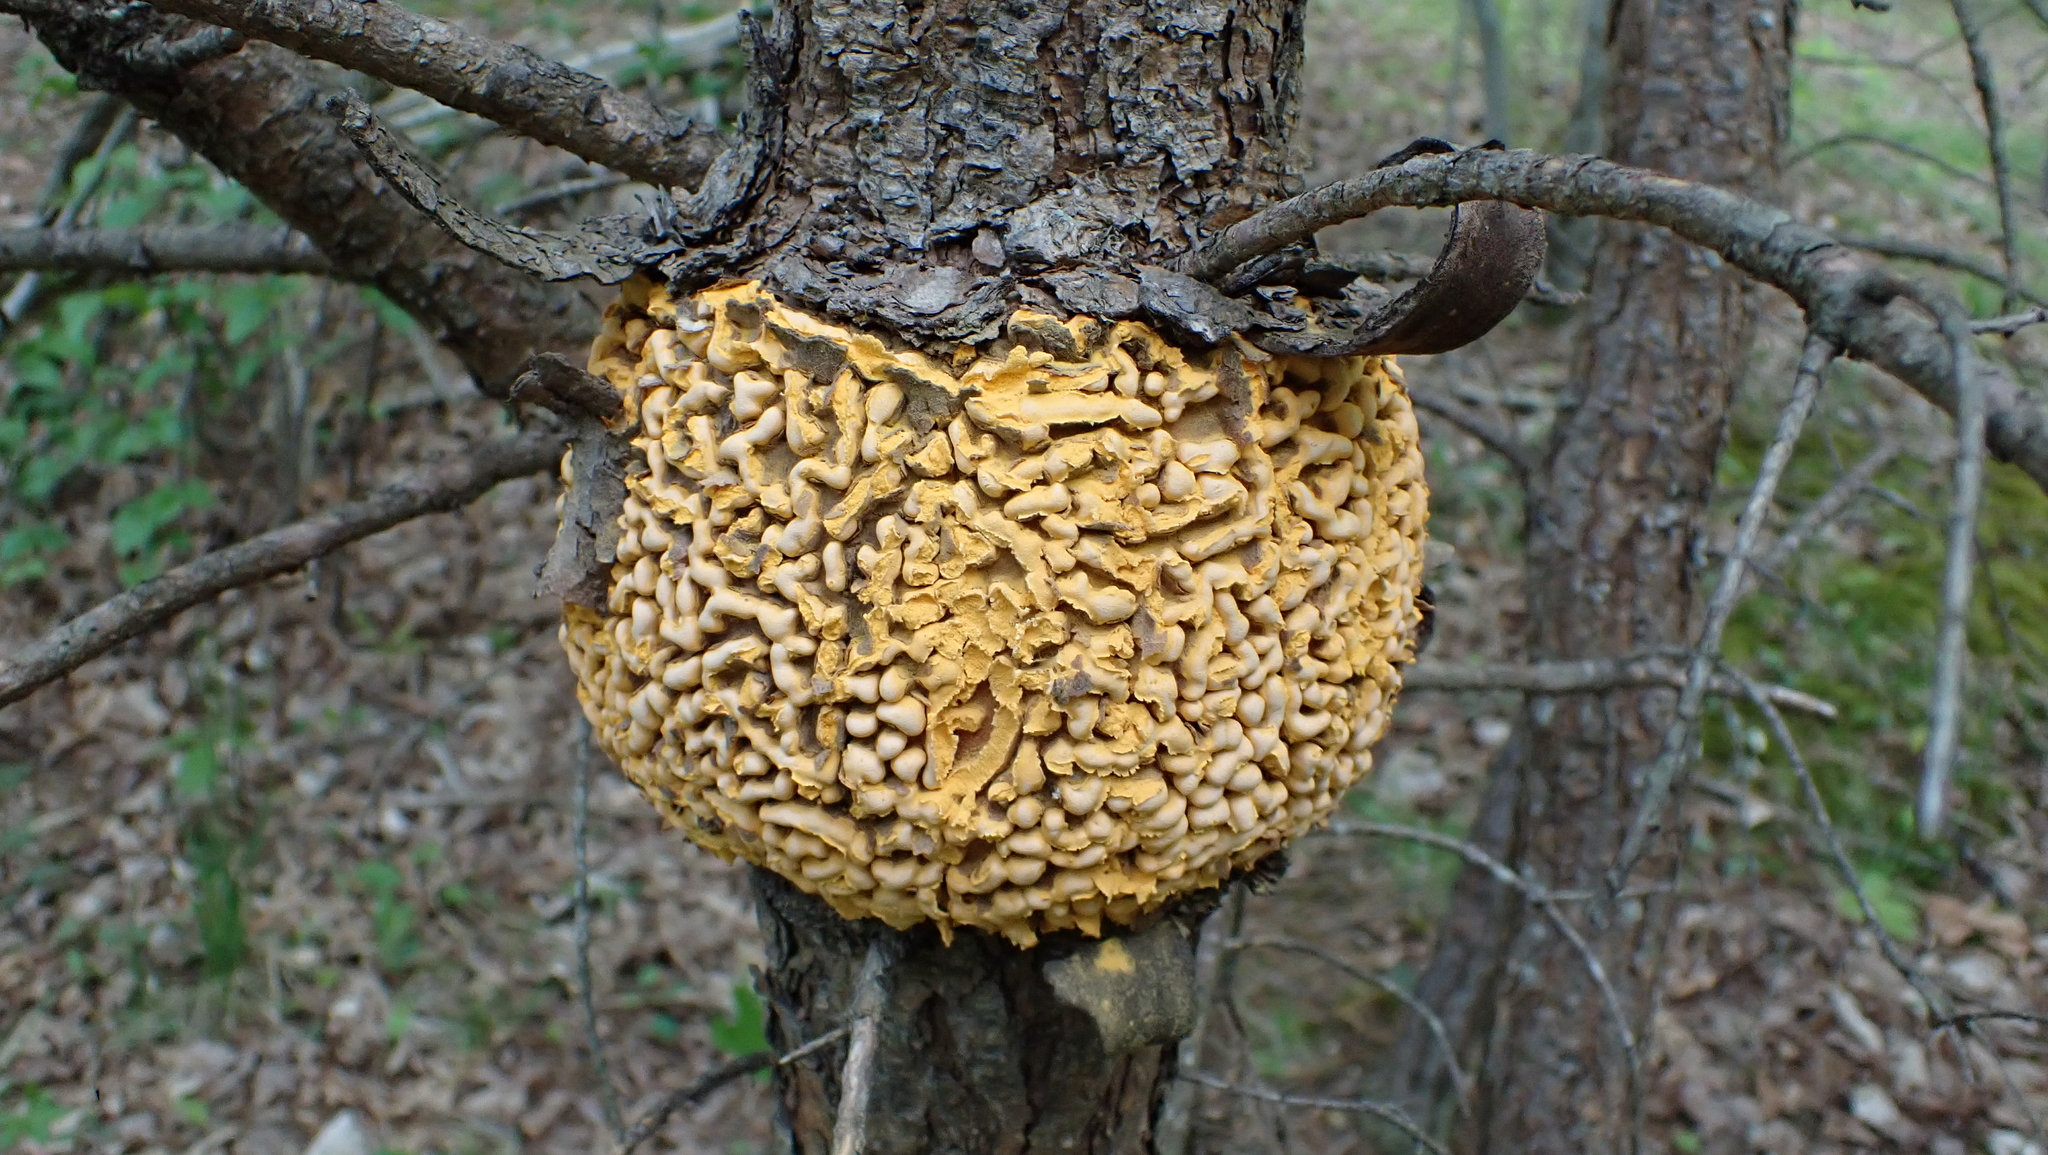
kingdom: Fungi
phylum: Basidiomycota
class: Pucciniomycetes
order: Pucciniales
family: Cronartiaceae
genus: Cronartium
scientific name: Cronartium quercuum
